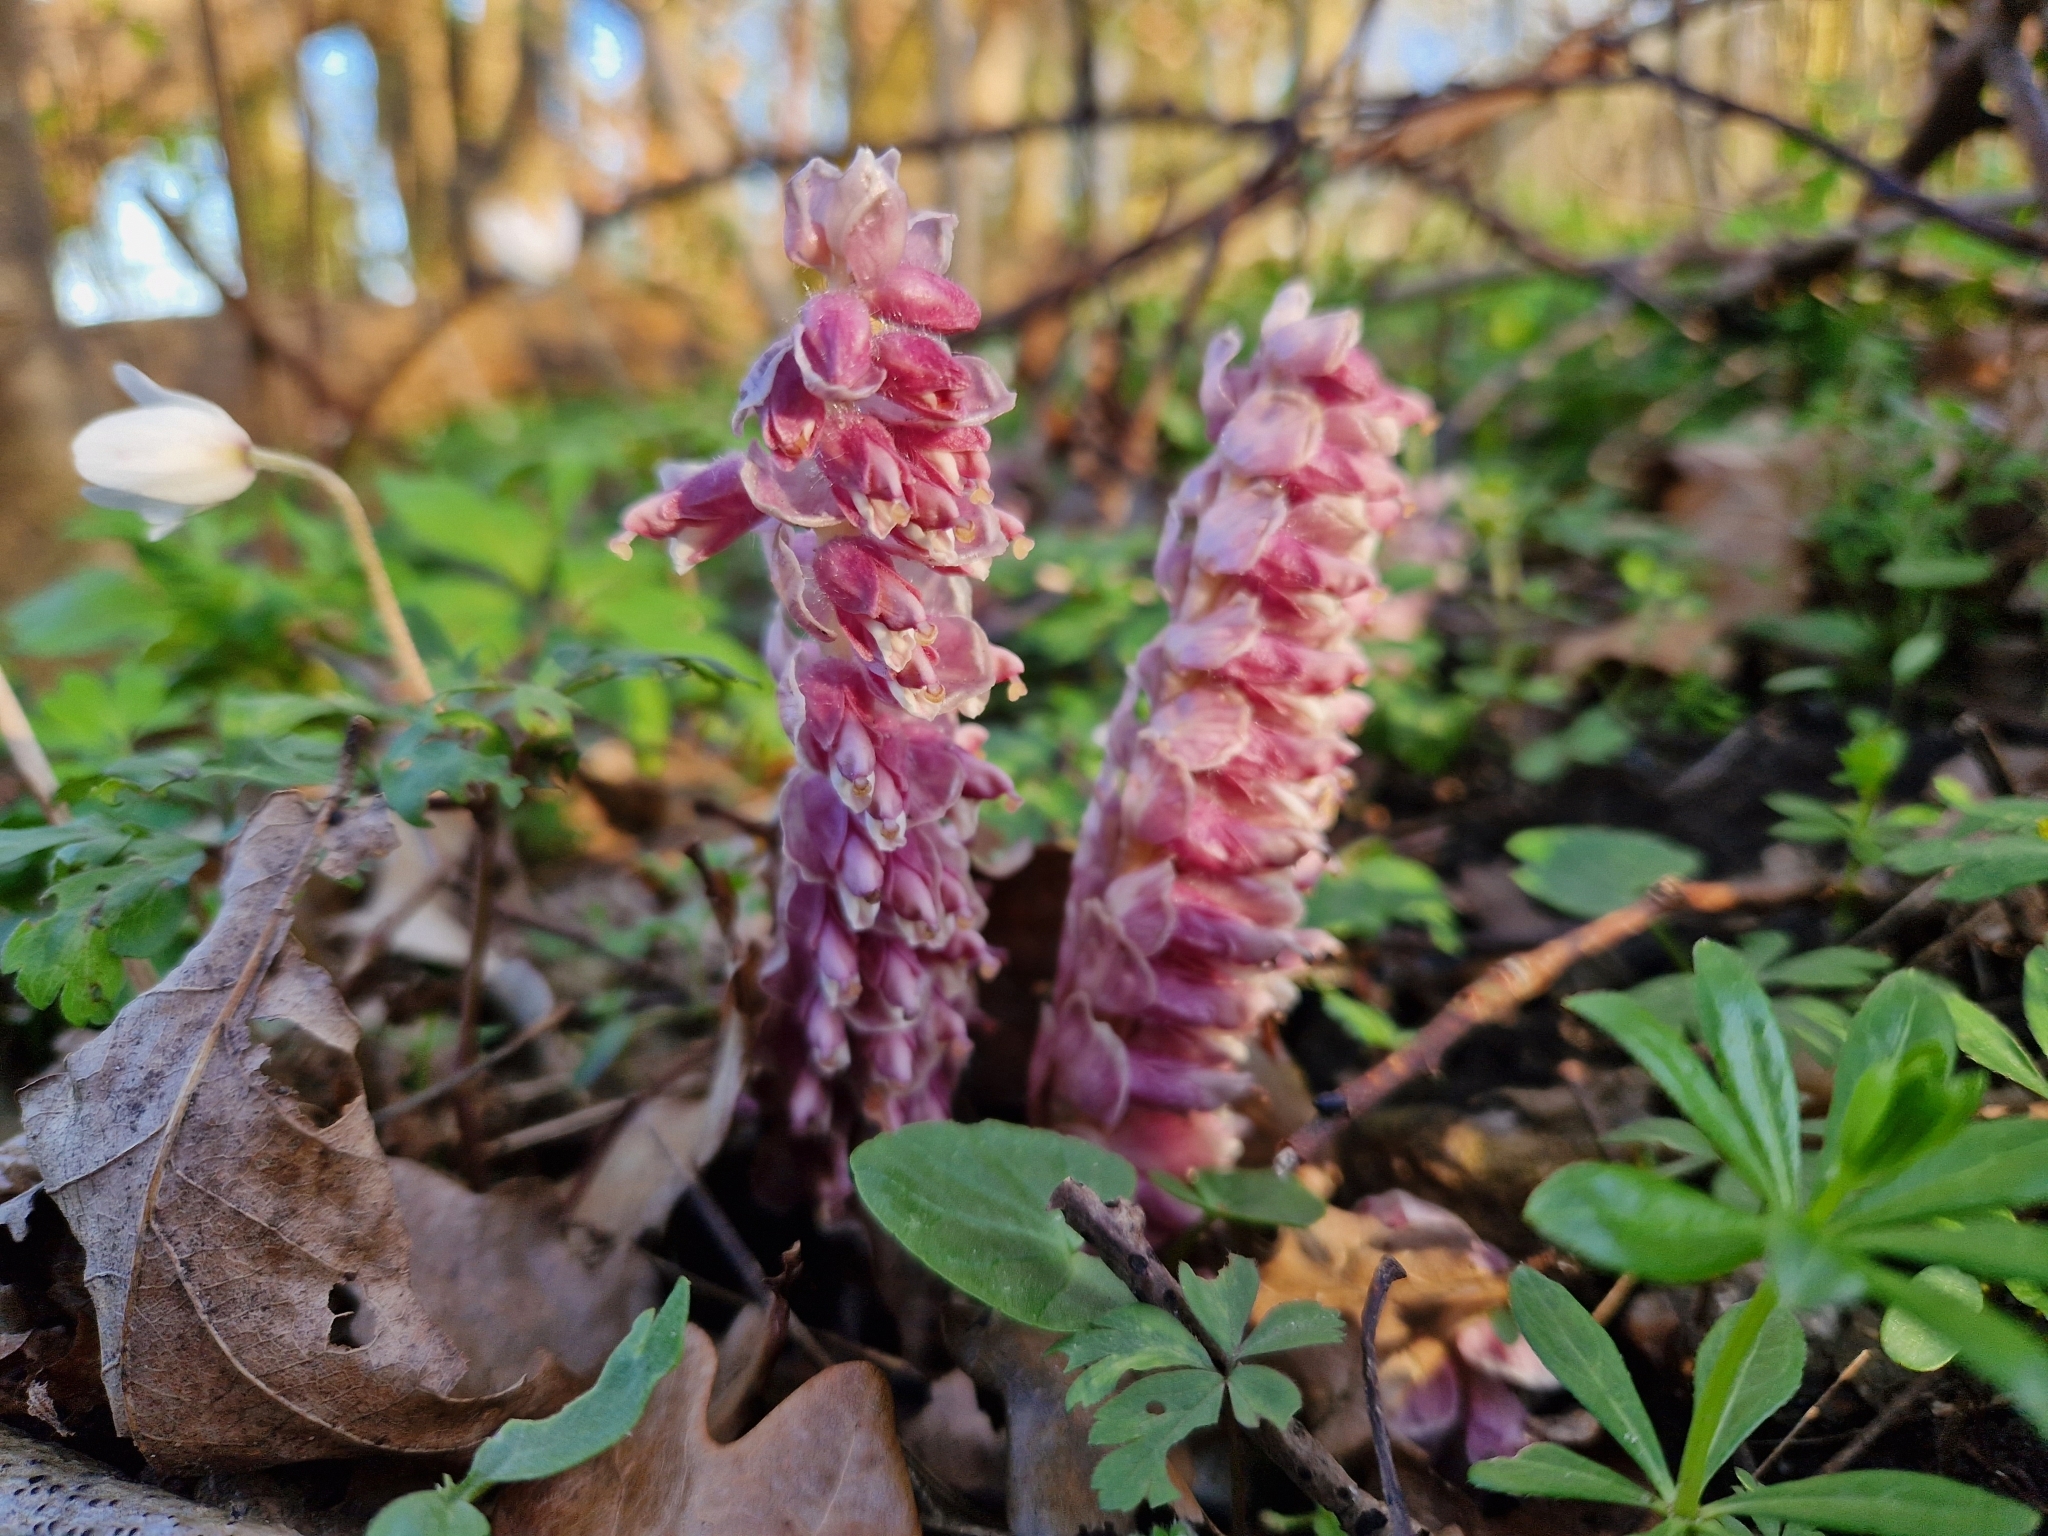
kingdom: Plantae
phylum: Tracheophyta
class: Magnoliopsida
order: Lamiales
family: Orobanchaceae
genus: Lathraea
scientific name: Lathraea squamaria
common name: Toothwort
